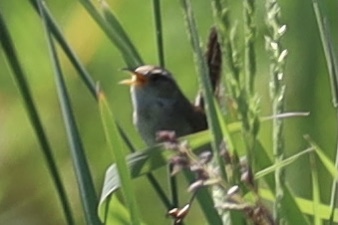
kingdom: Animalia
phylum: Chordata
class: Aves
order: Passeriformes
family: Troglodytidae
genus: Cistothorus
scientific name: Cistothorus palustris
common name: Marsh wren
